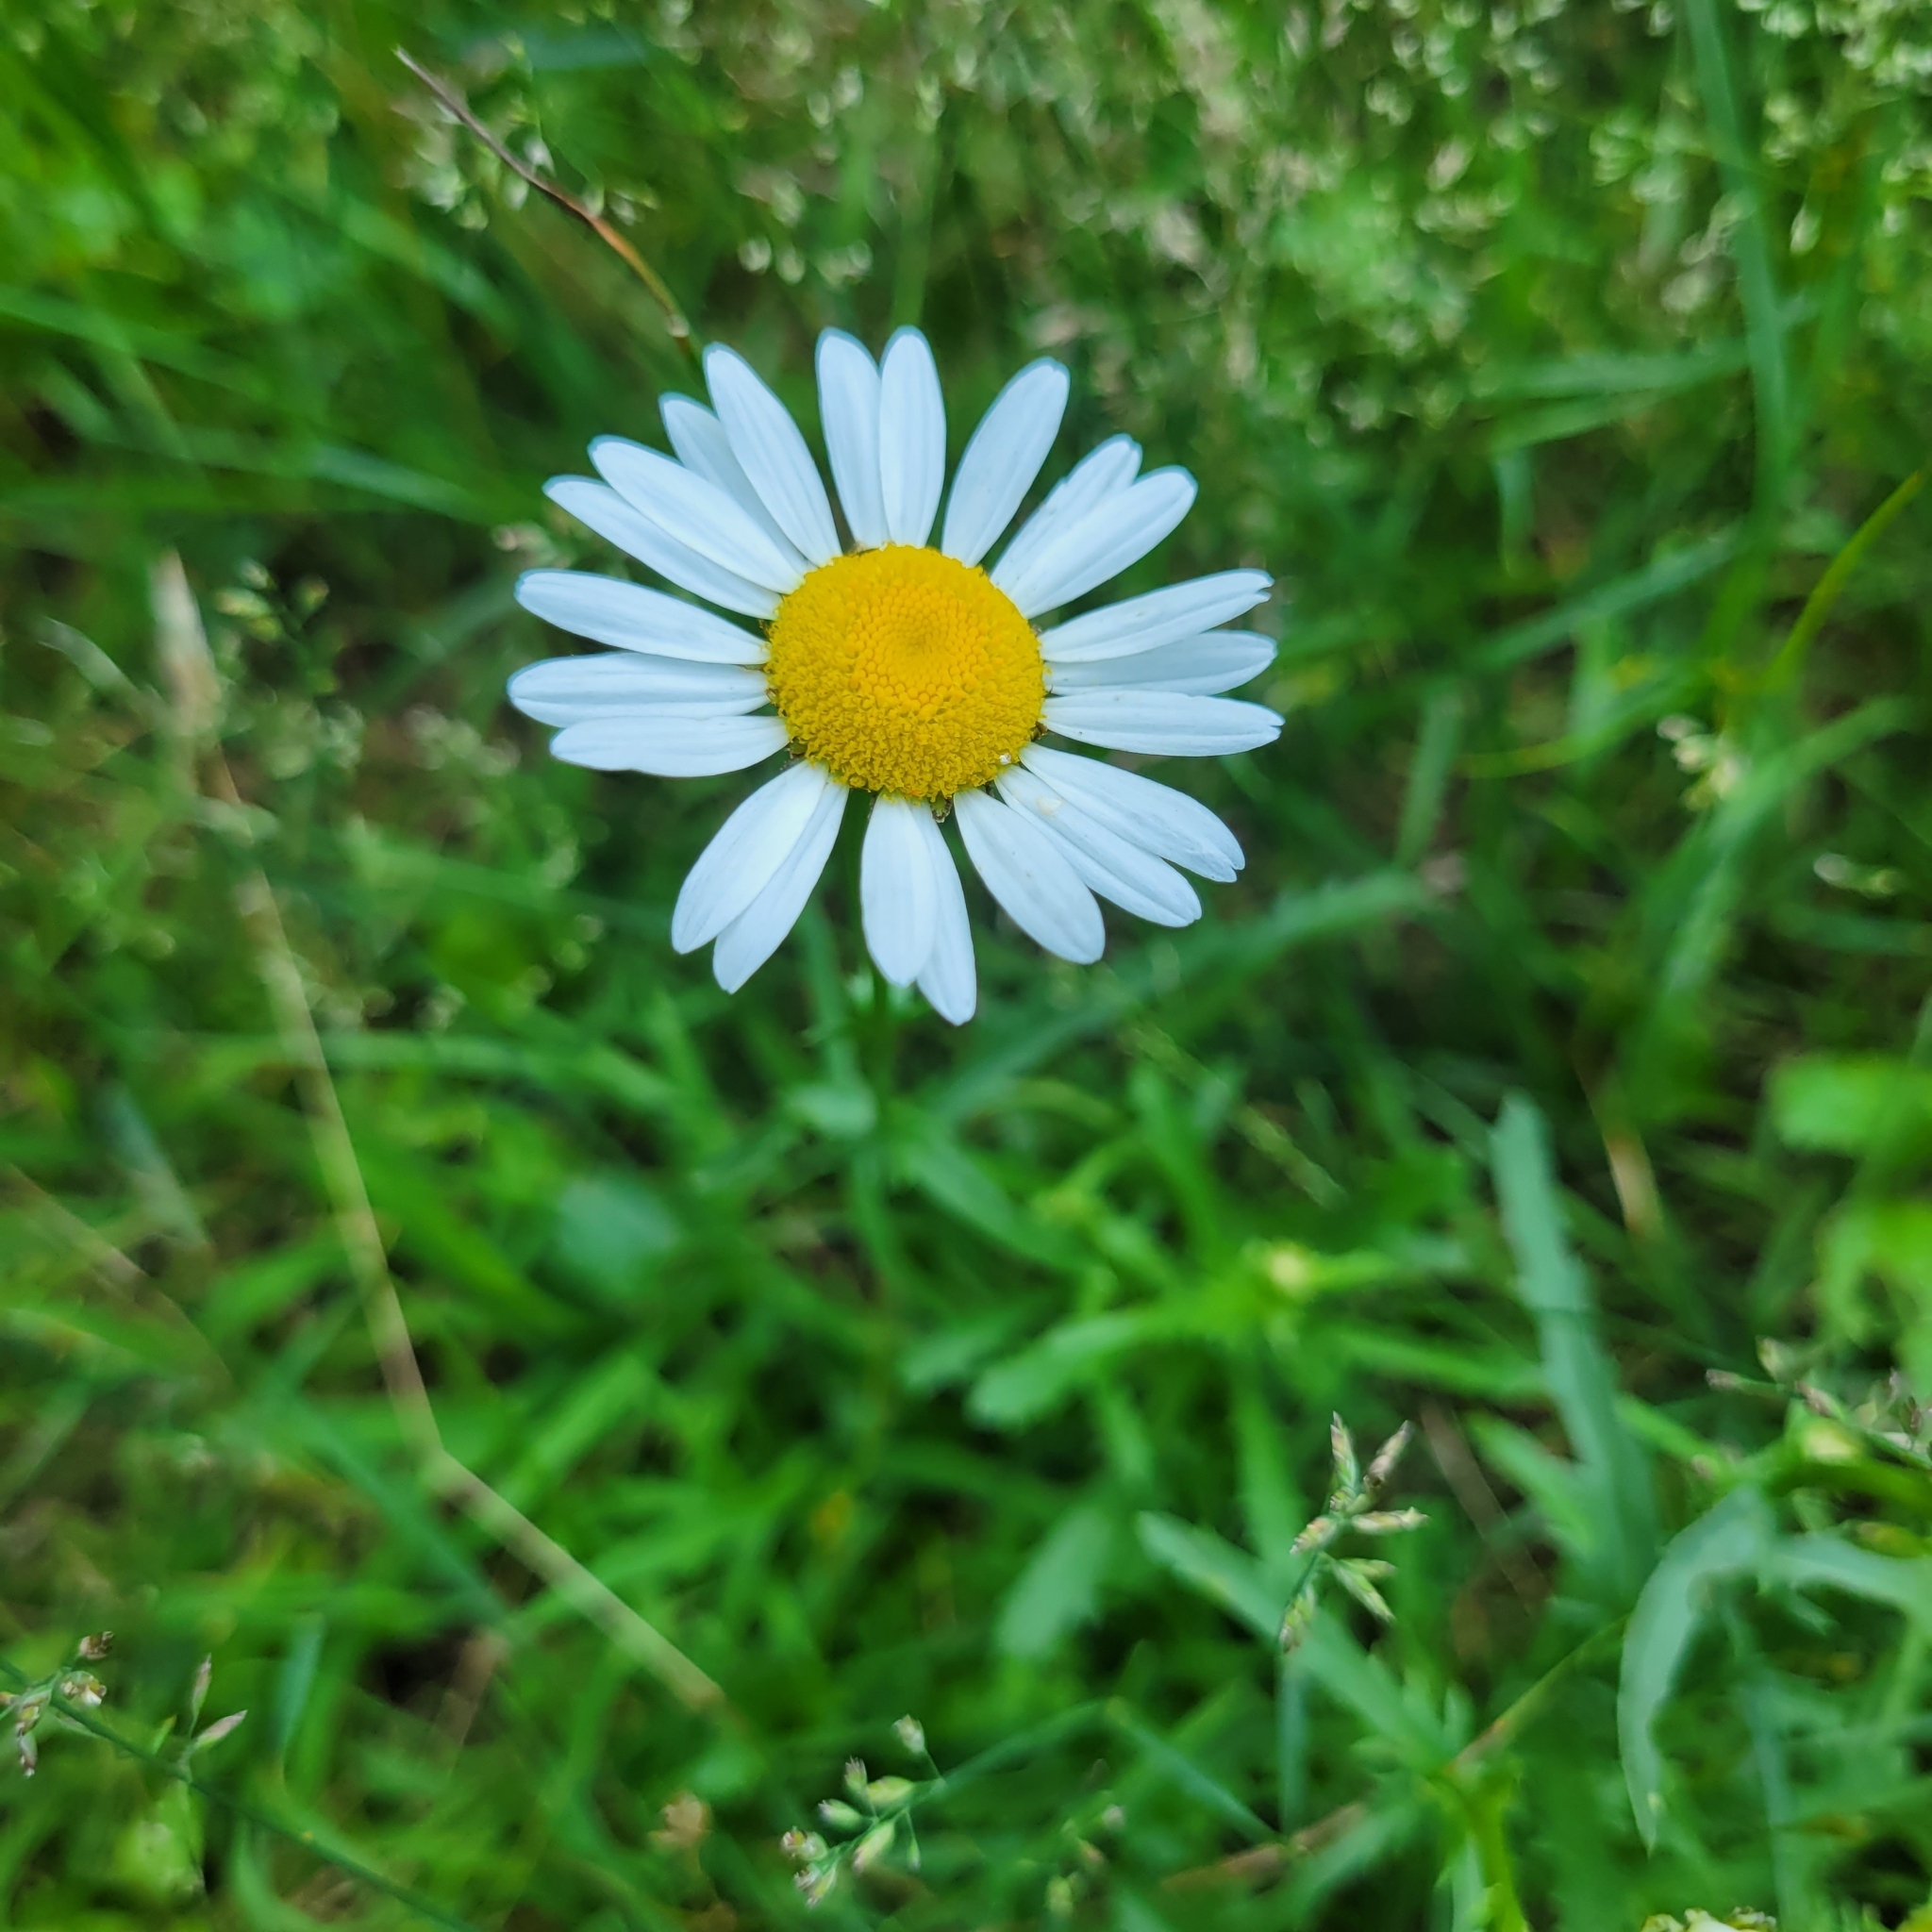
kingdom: Plantae
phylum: Tracheophyta
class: Magnoliopsida
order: Asterales
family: Asteraceae
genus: Leucanthemum
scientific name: Leucanthemum vulgare
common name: Oxeye daisy
